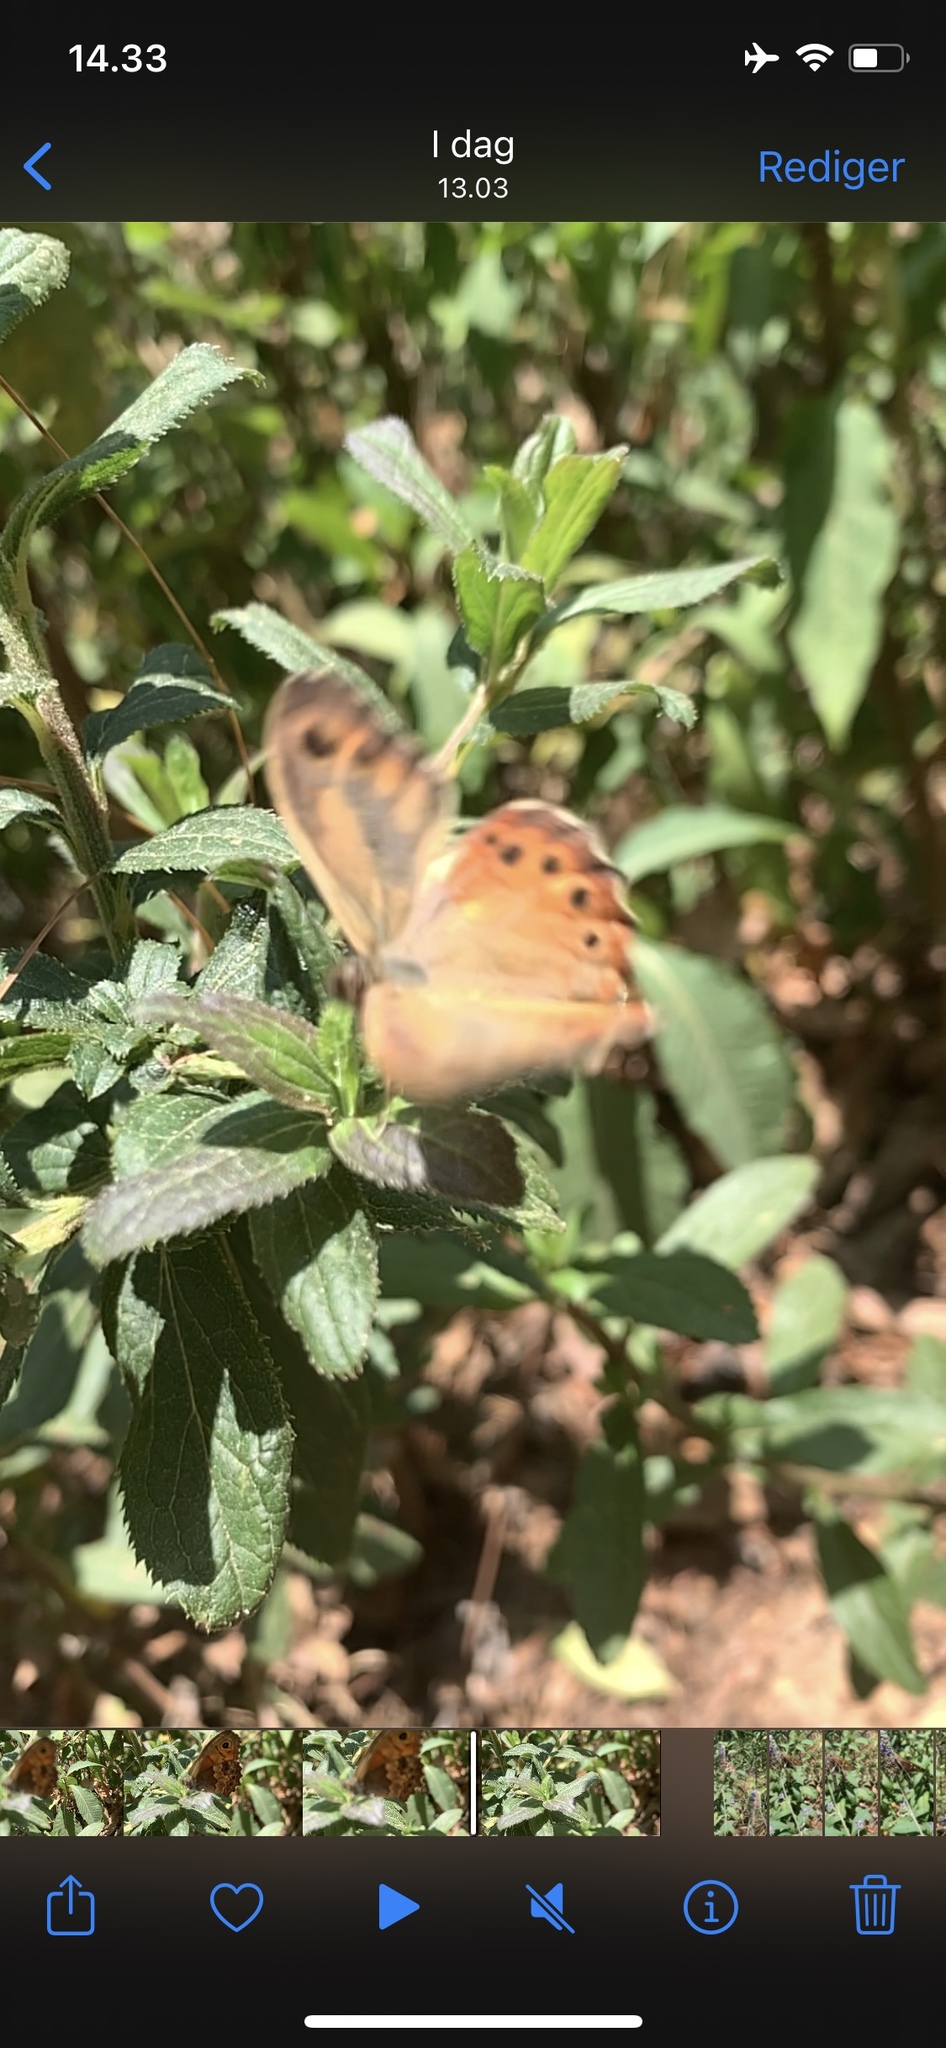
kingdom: Animalia
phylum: Arthropoda
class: Insecta
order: Lepidoptera
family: Nymphalidae
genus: Paramecera
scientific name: Paramecera xicaque
